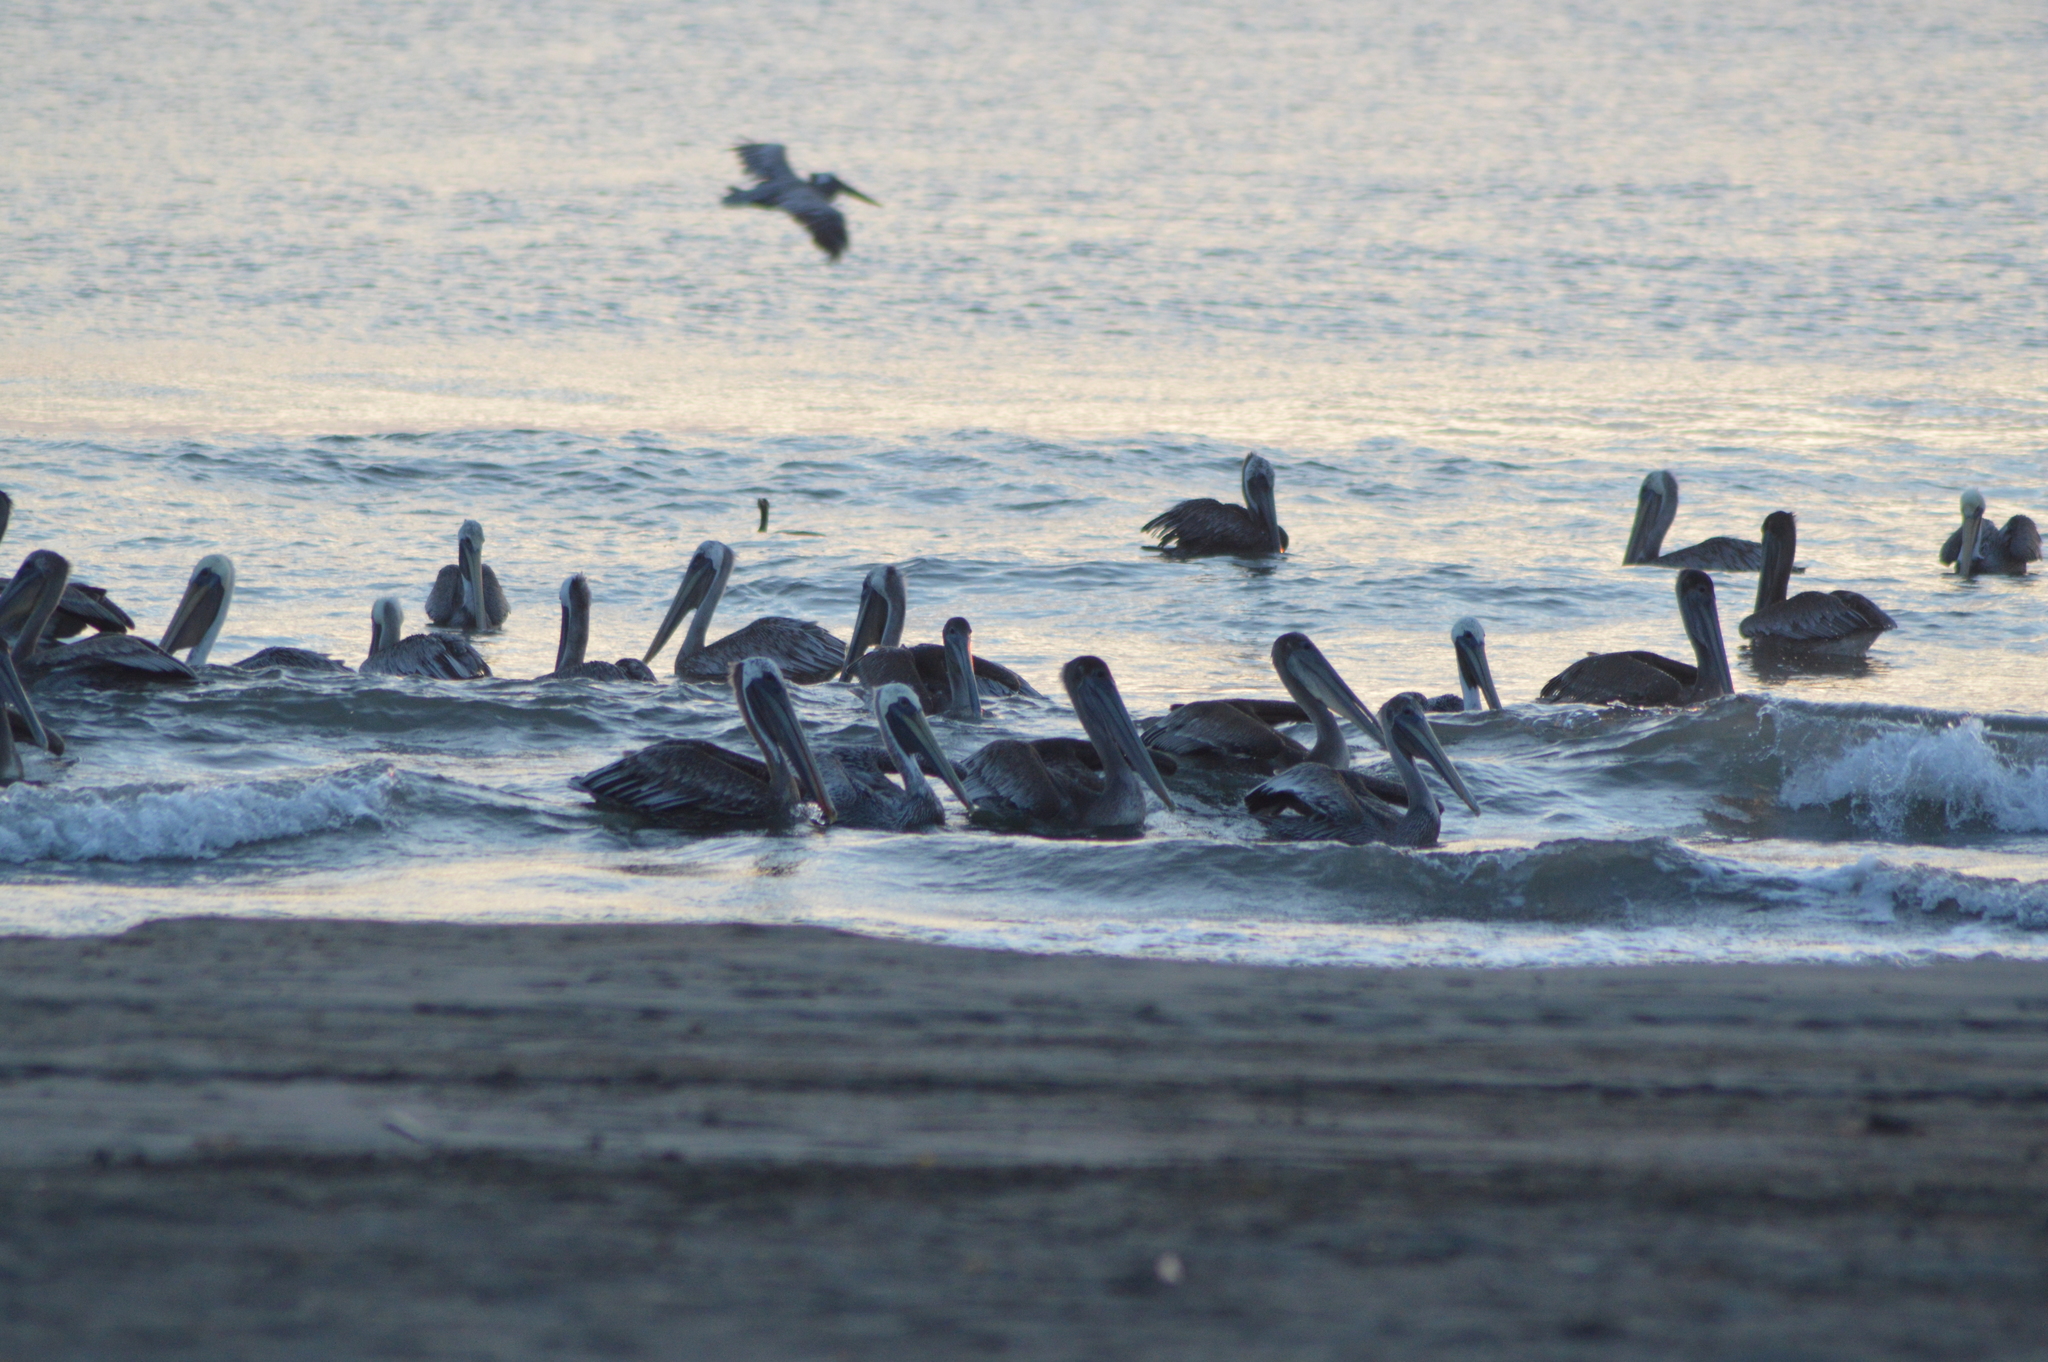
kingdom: Animalia
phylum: Chordata
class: Aves
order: Pelecaniformes
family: Pelecanidae
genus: Pelecanus
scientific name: Pelecanus occidentalis
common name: Brown pelican
